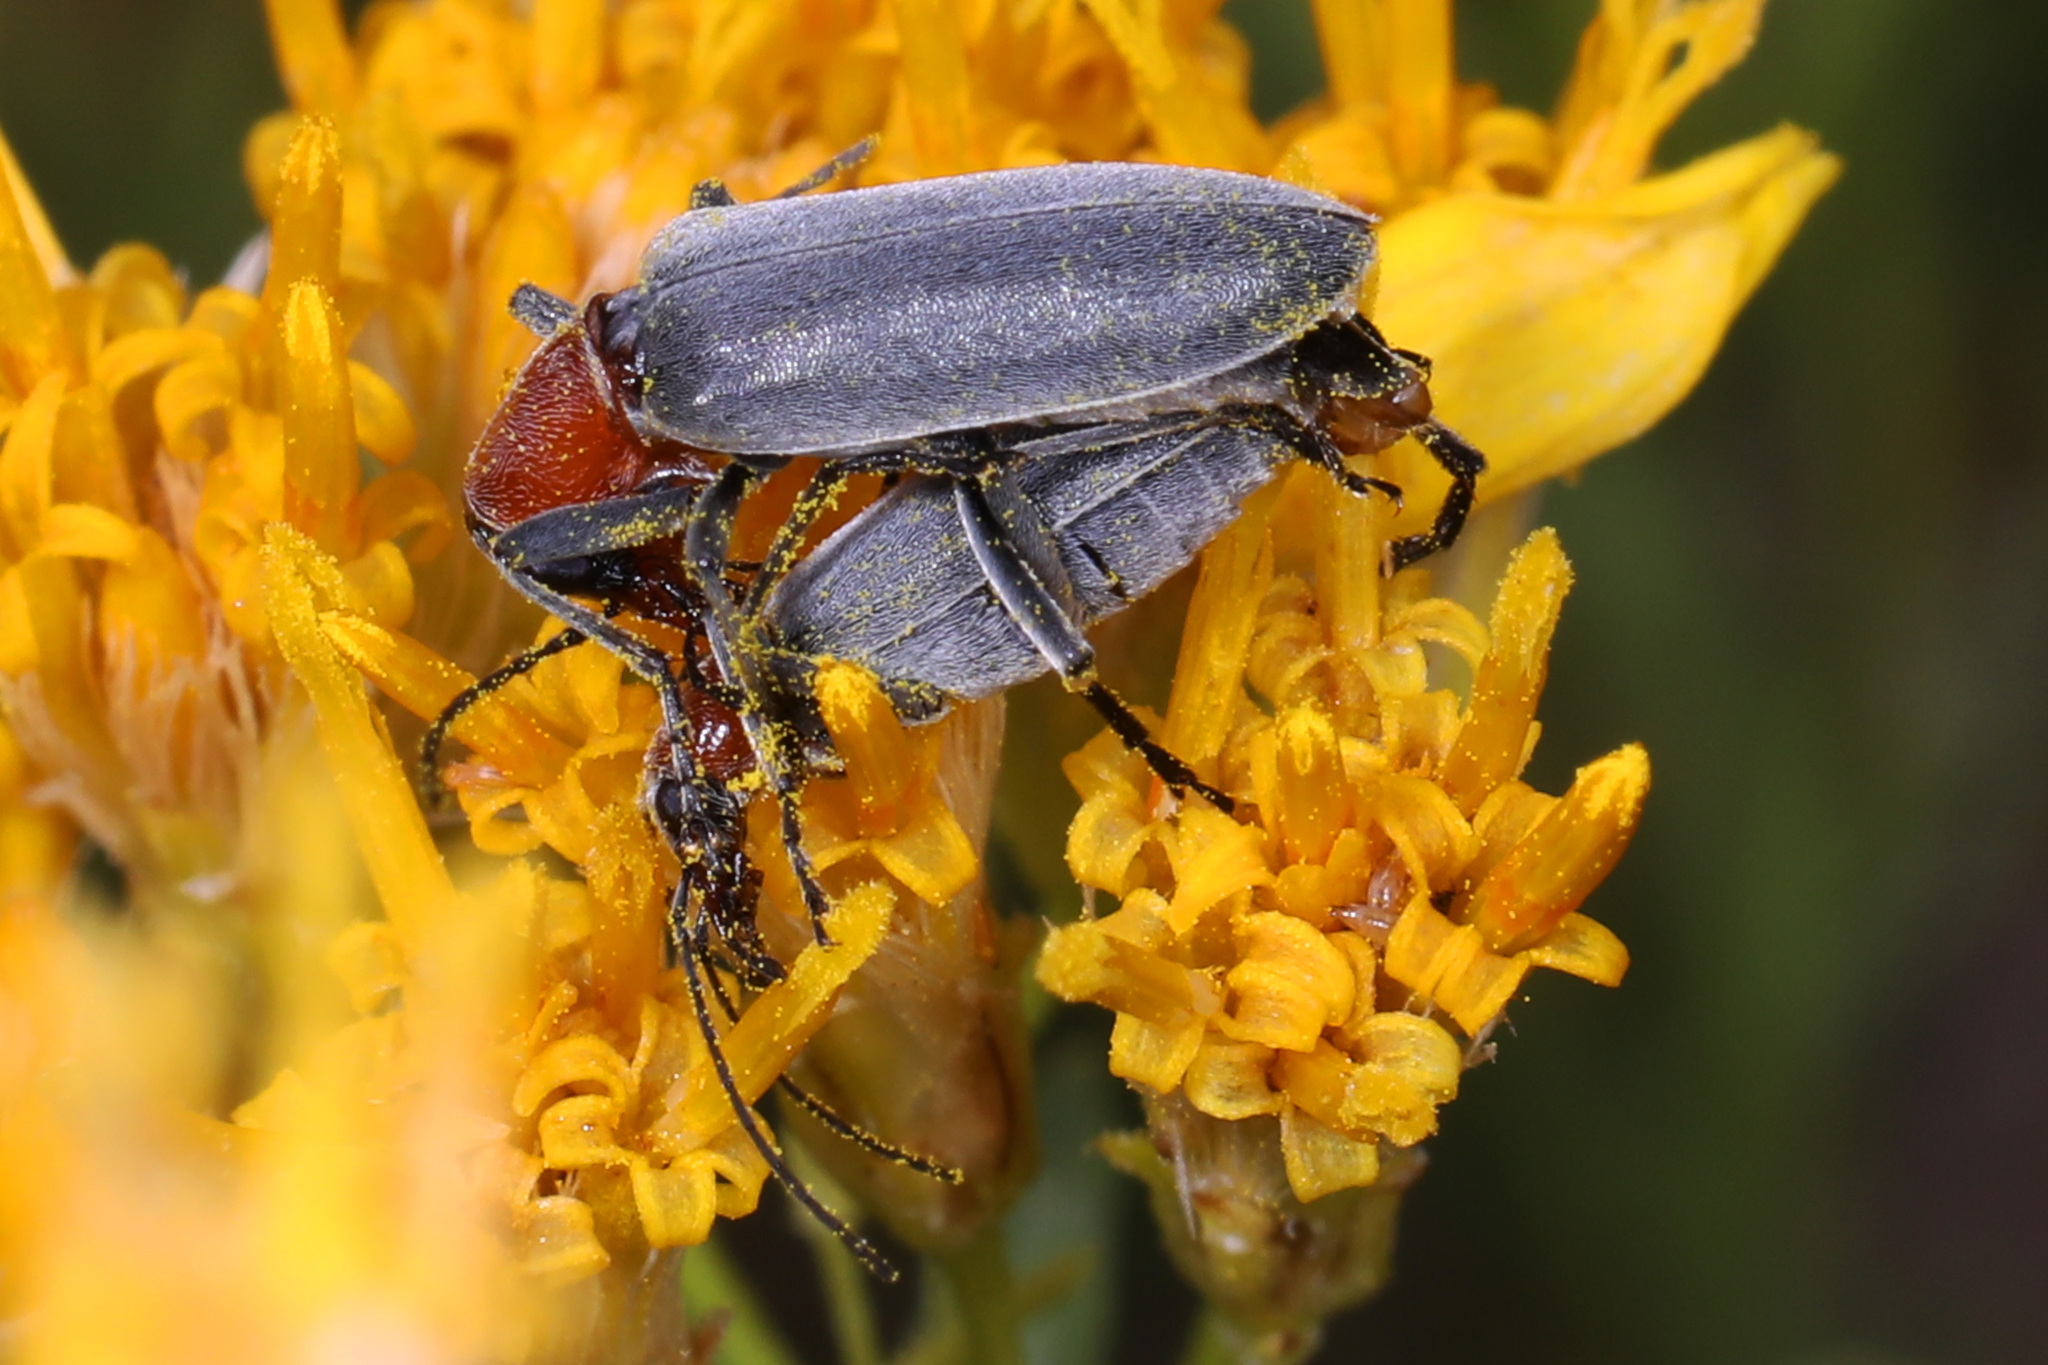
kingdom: Animalia
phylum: Arthropoda
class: Insecta
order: Coleoptera
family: Oedemeridae
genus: Rhinoplatia
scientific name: Rhinoplatia ruficollis
